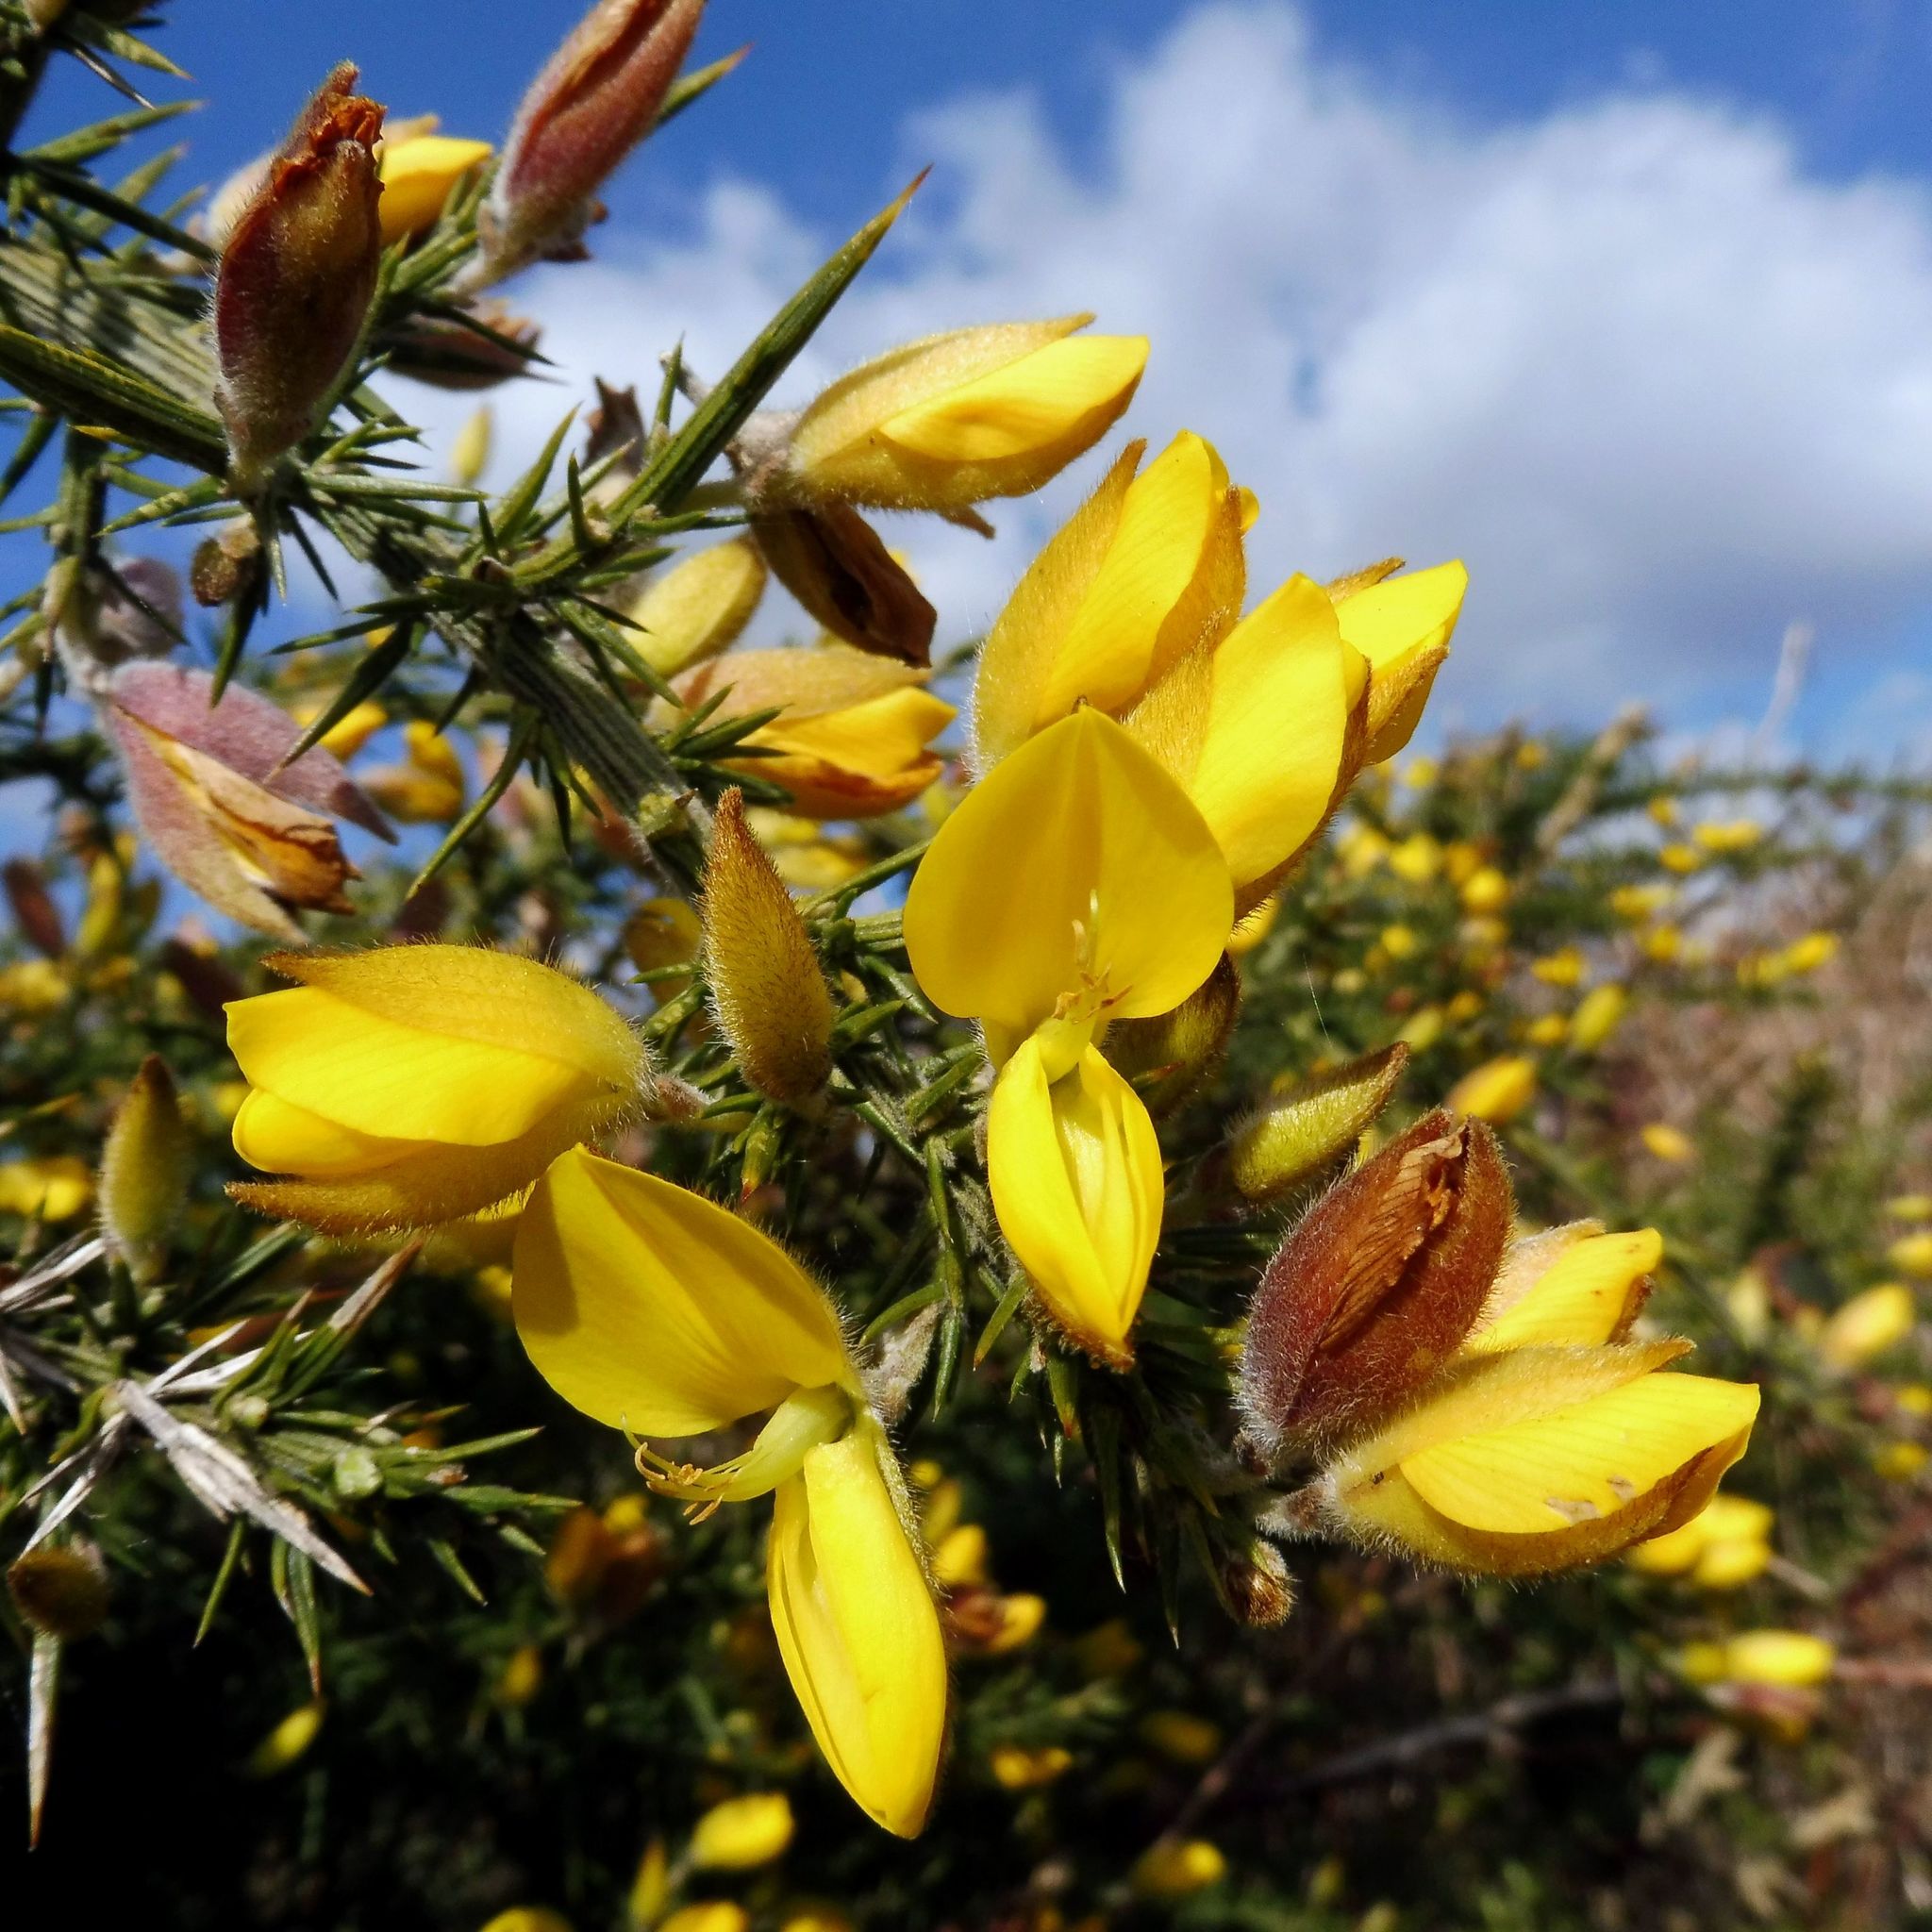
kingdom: Plantae
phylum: Tracheophyta
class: Magnoliopsida
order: Fabales
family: Fabaceae
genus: Ulex
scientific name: Ulex europaeus
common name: Common gorse
